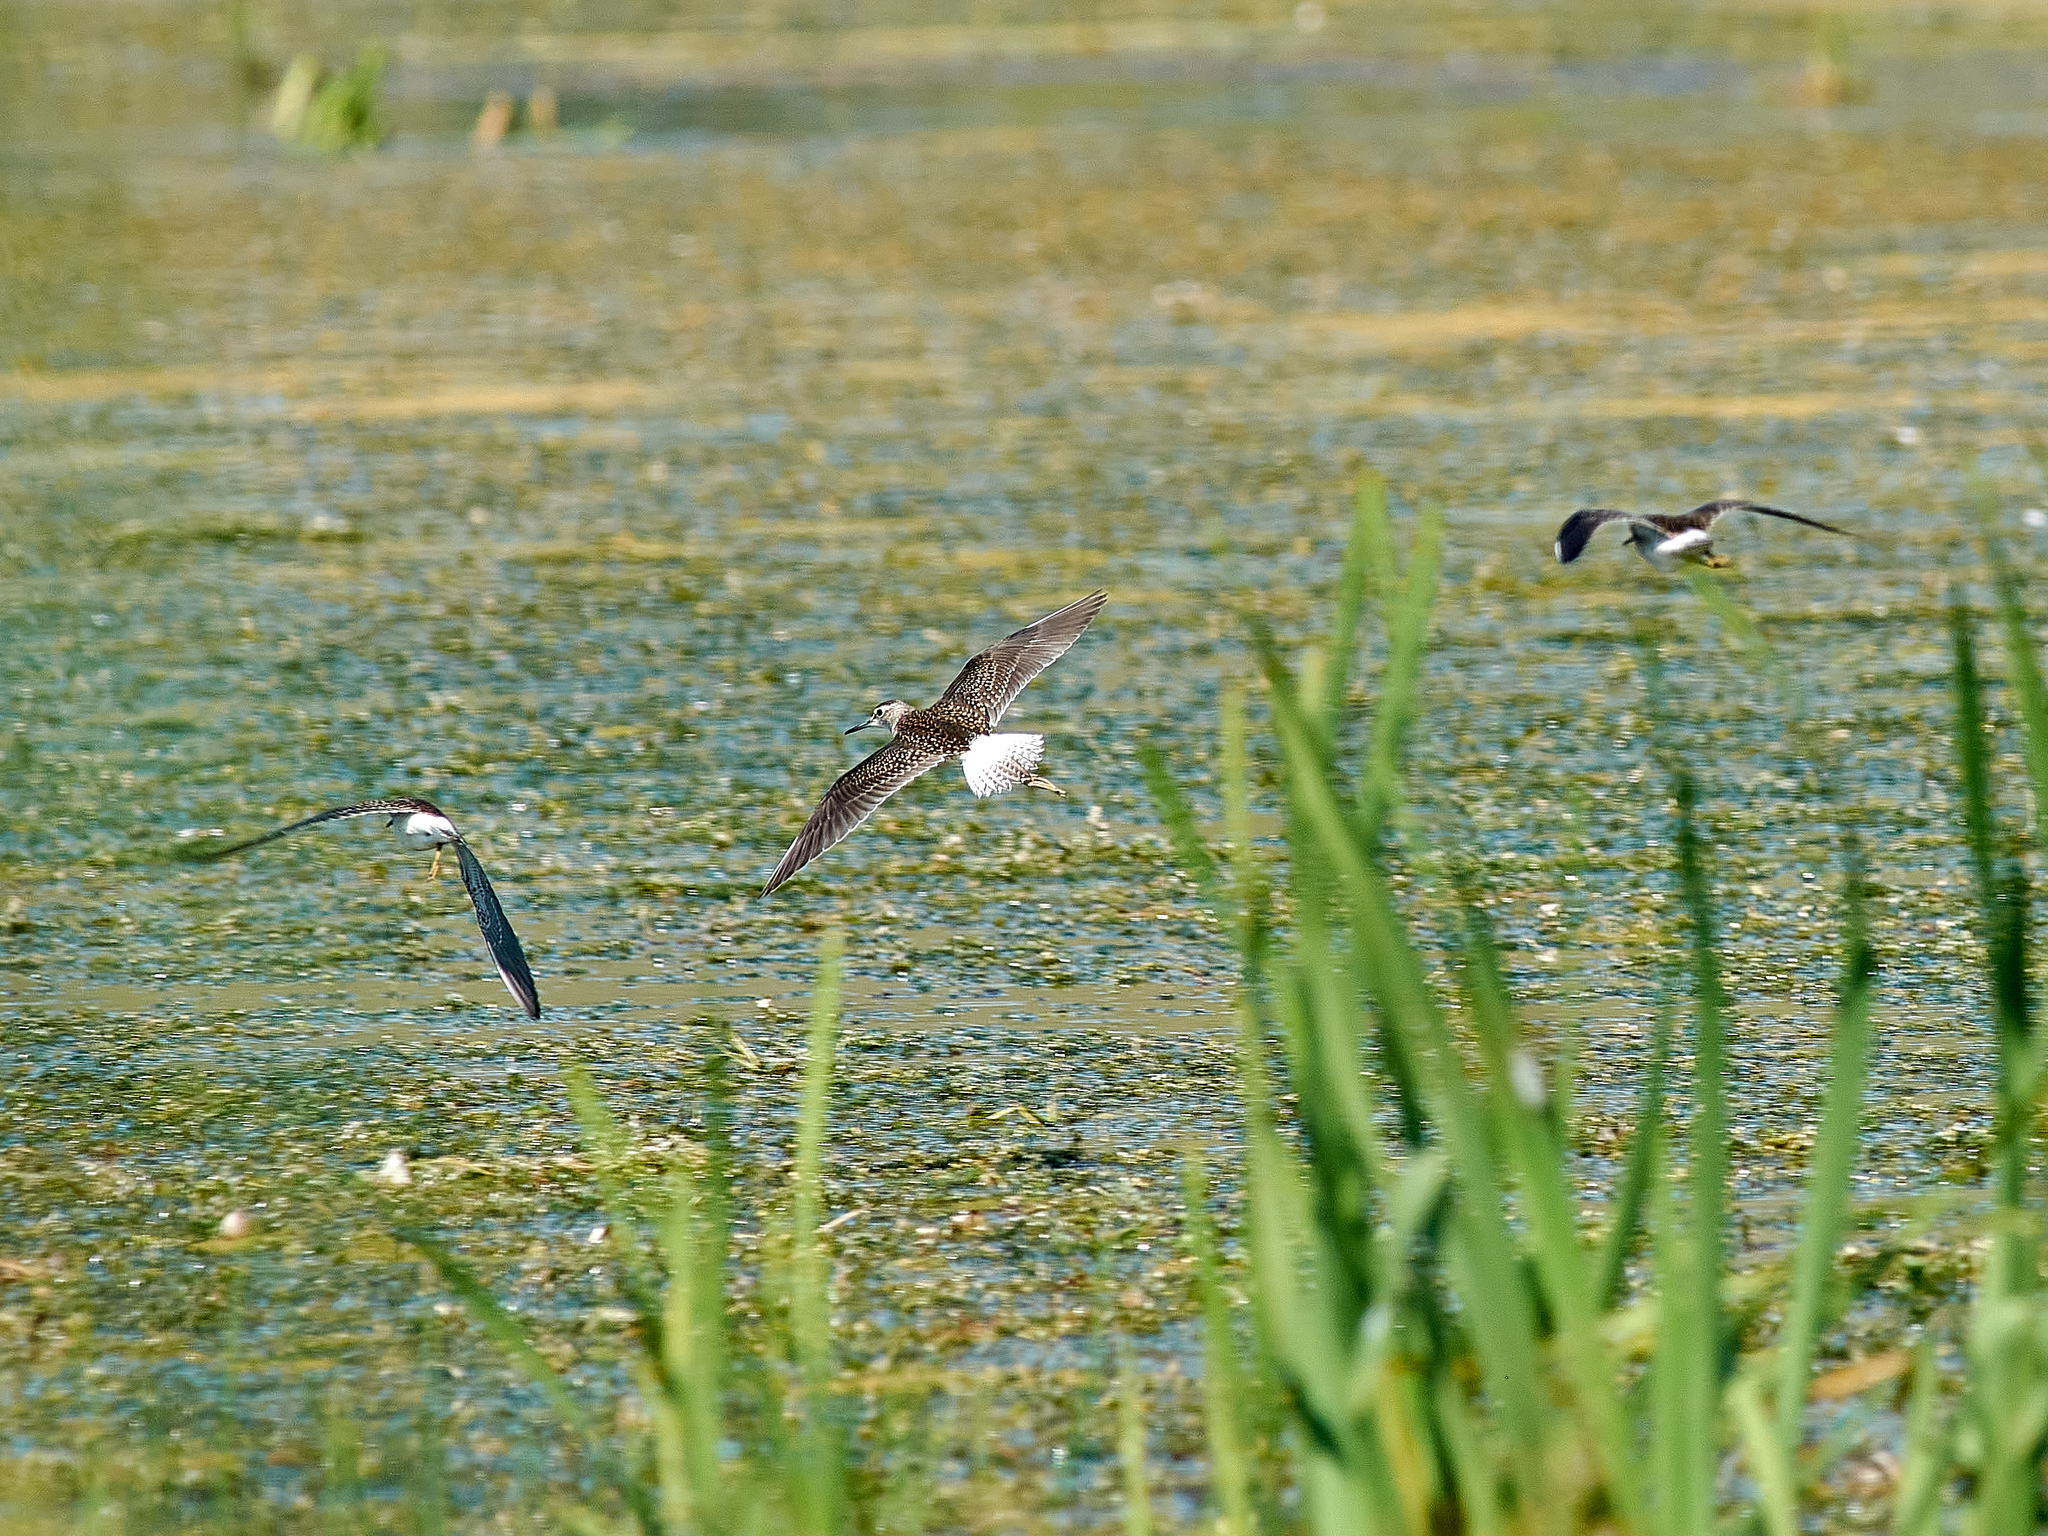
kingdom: Animalia
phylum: Chordata
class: Aves
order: Charadriiformes
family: Scolopacidae
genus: Tringa
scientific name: Tringa glareola
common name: Wood sandpiper
